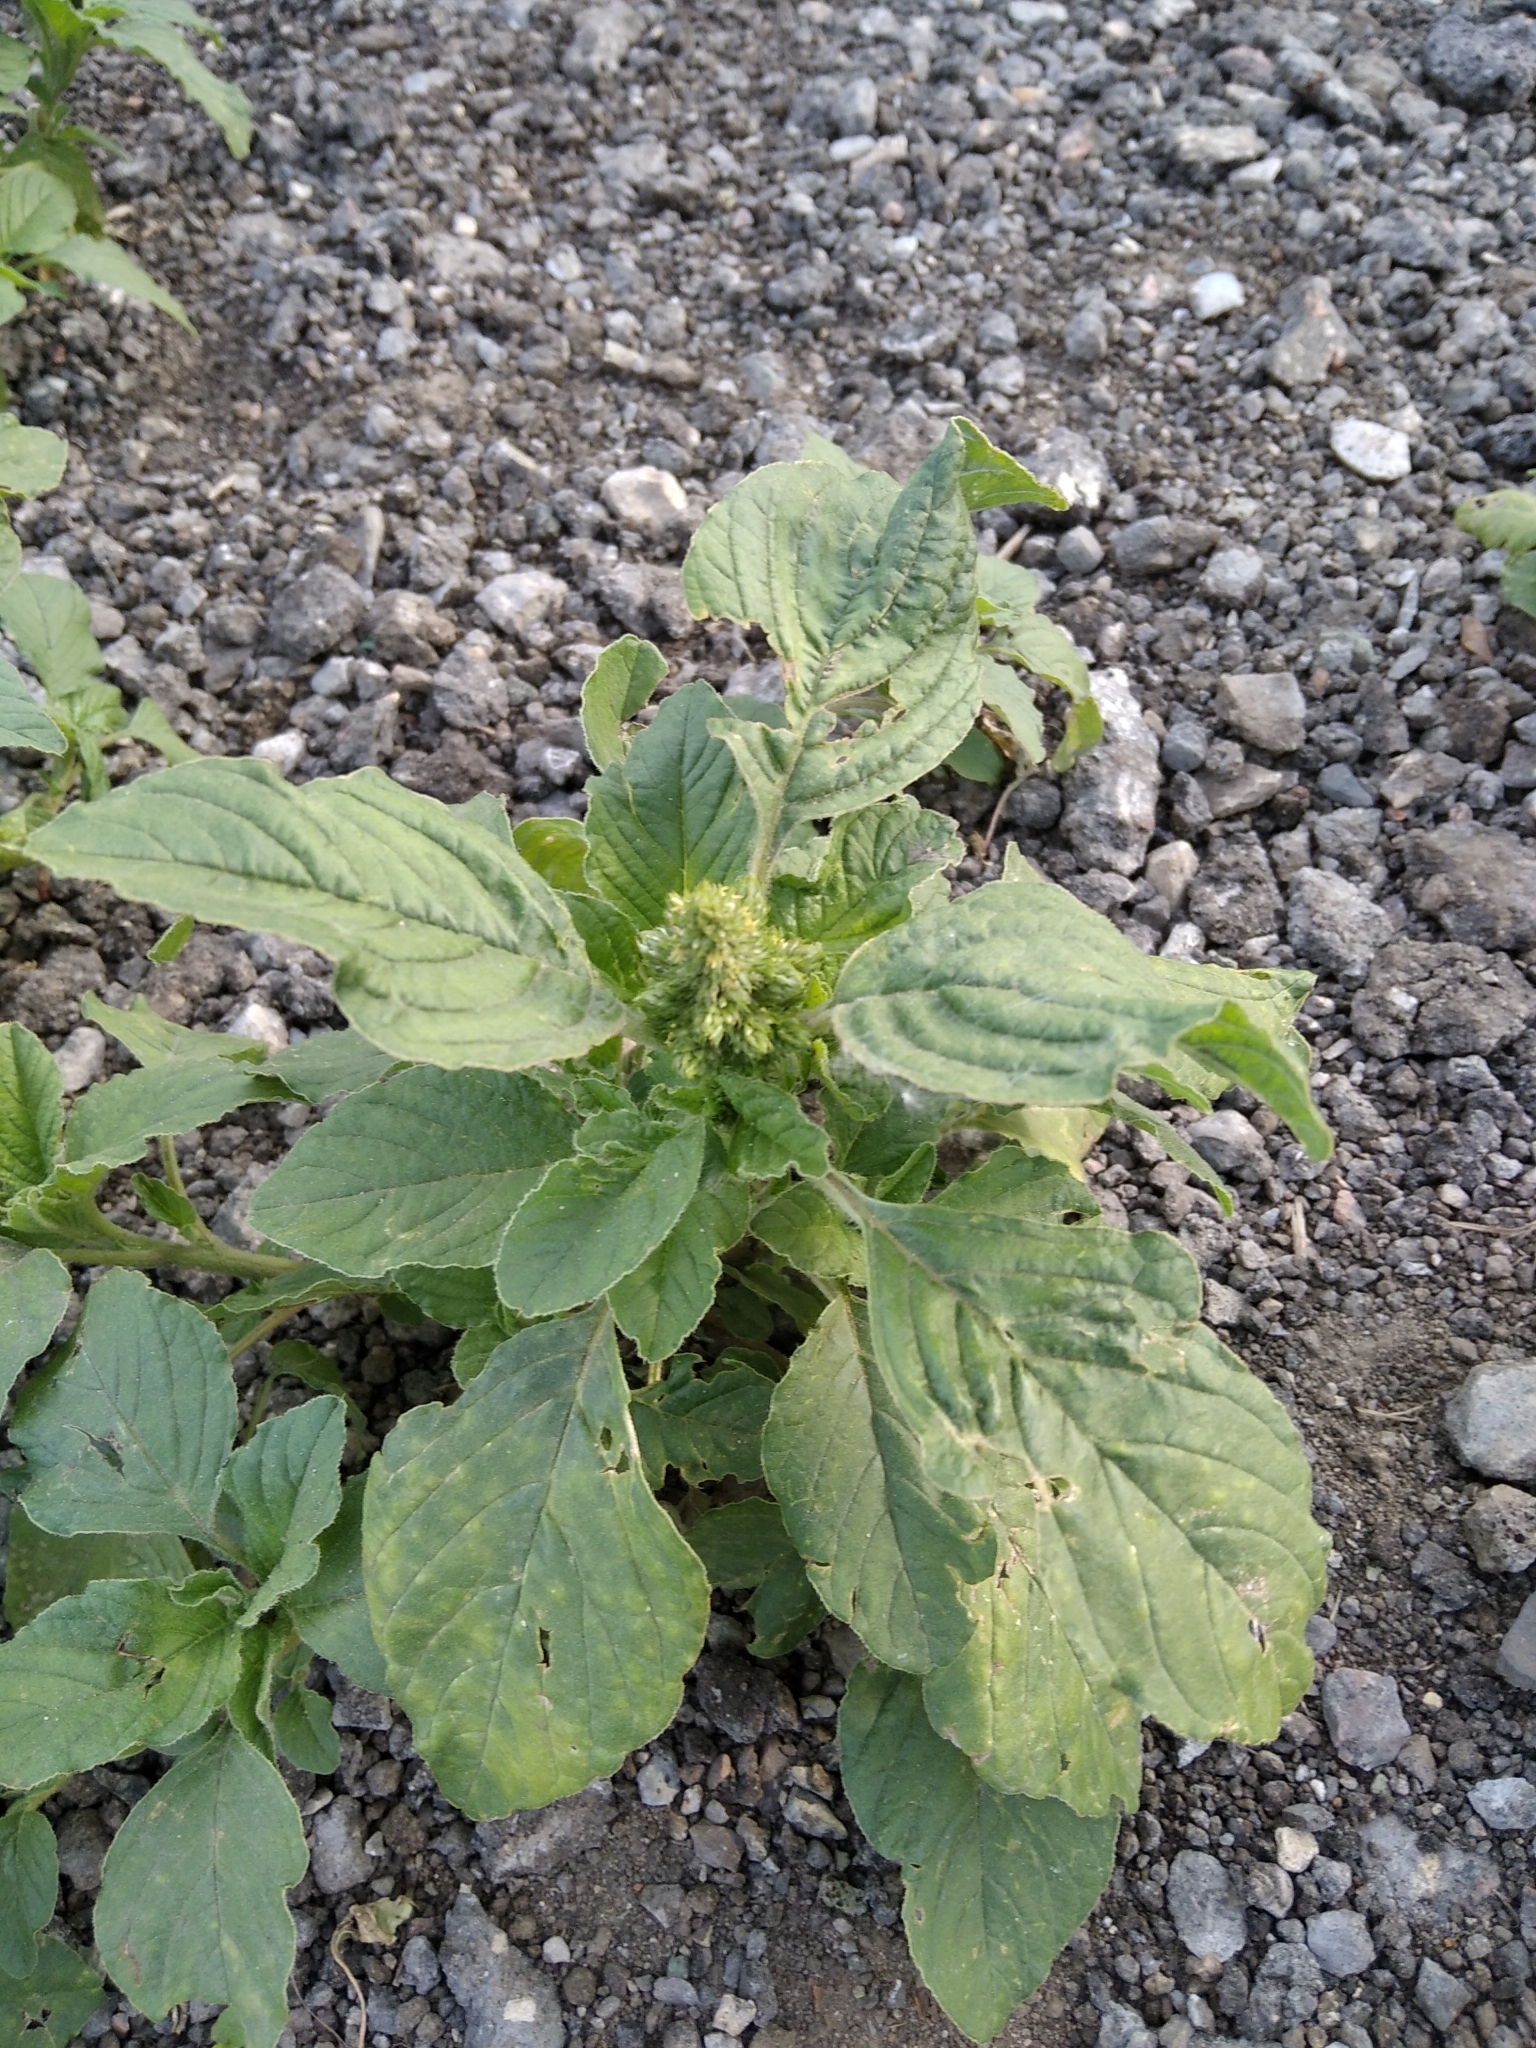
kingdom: Plantae
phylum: Tracheophyta
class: Magnoliopsida
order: Caryophyllales
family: Amaranthaceae
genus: Amaranthus
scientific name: Amaranthus retroflexus
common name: Redroot amaranth
